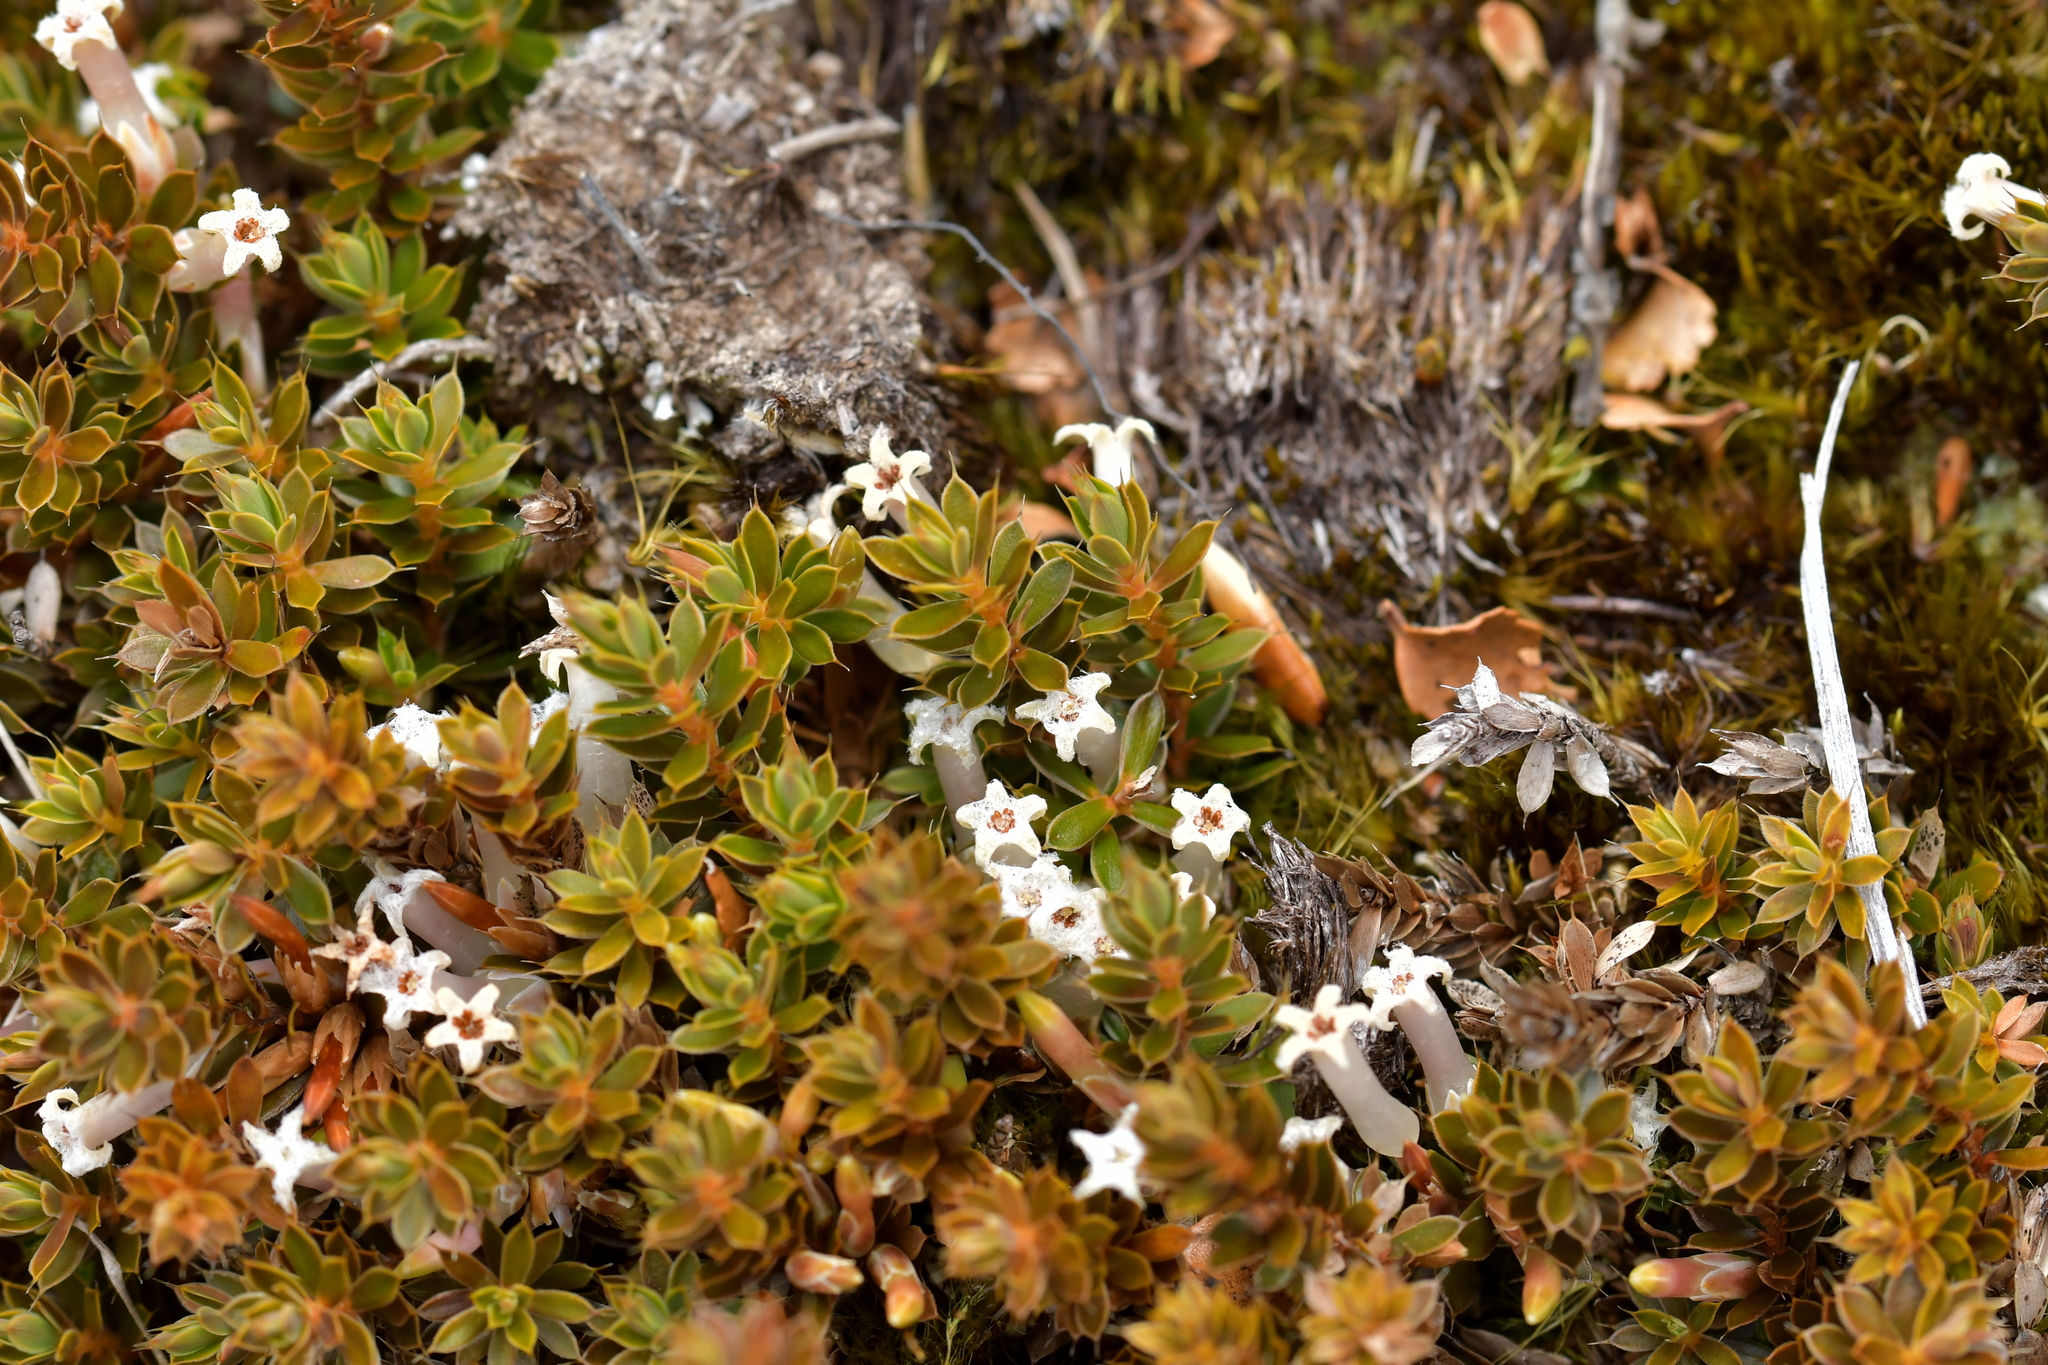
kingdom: Plantae
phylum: Tracheophyta
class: Magnoliopsida
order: Ericales
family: Ericaceae
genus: Styphelia
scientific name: Styphelia nesophila
